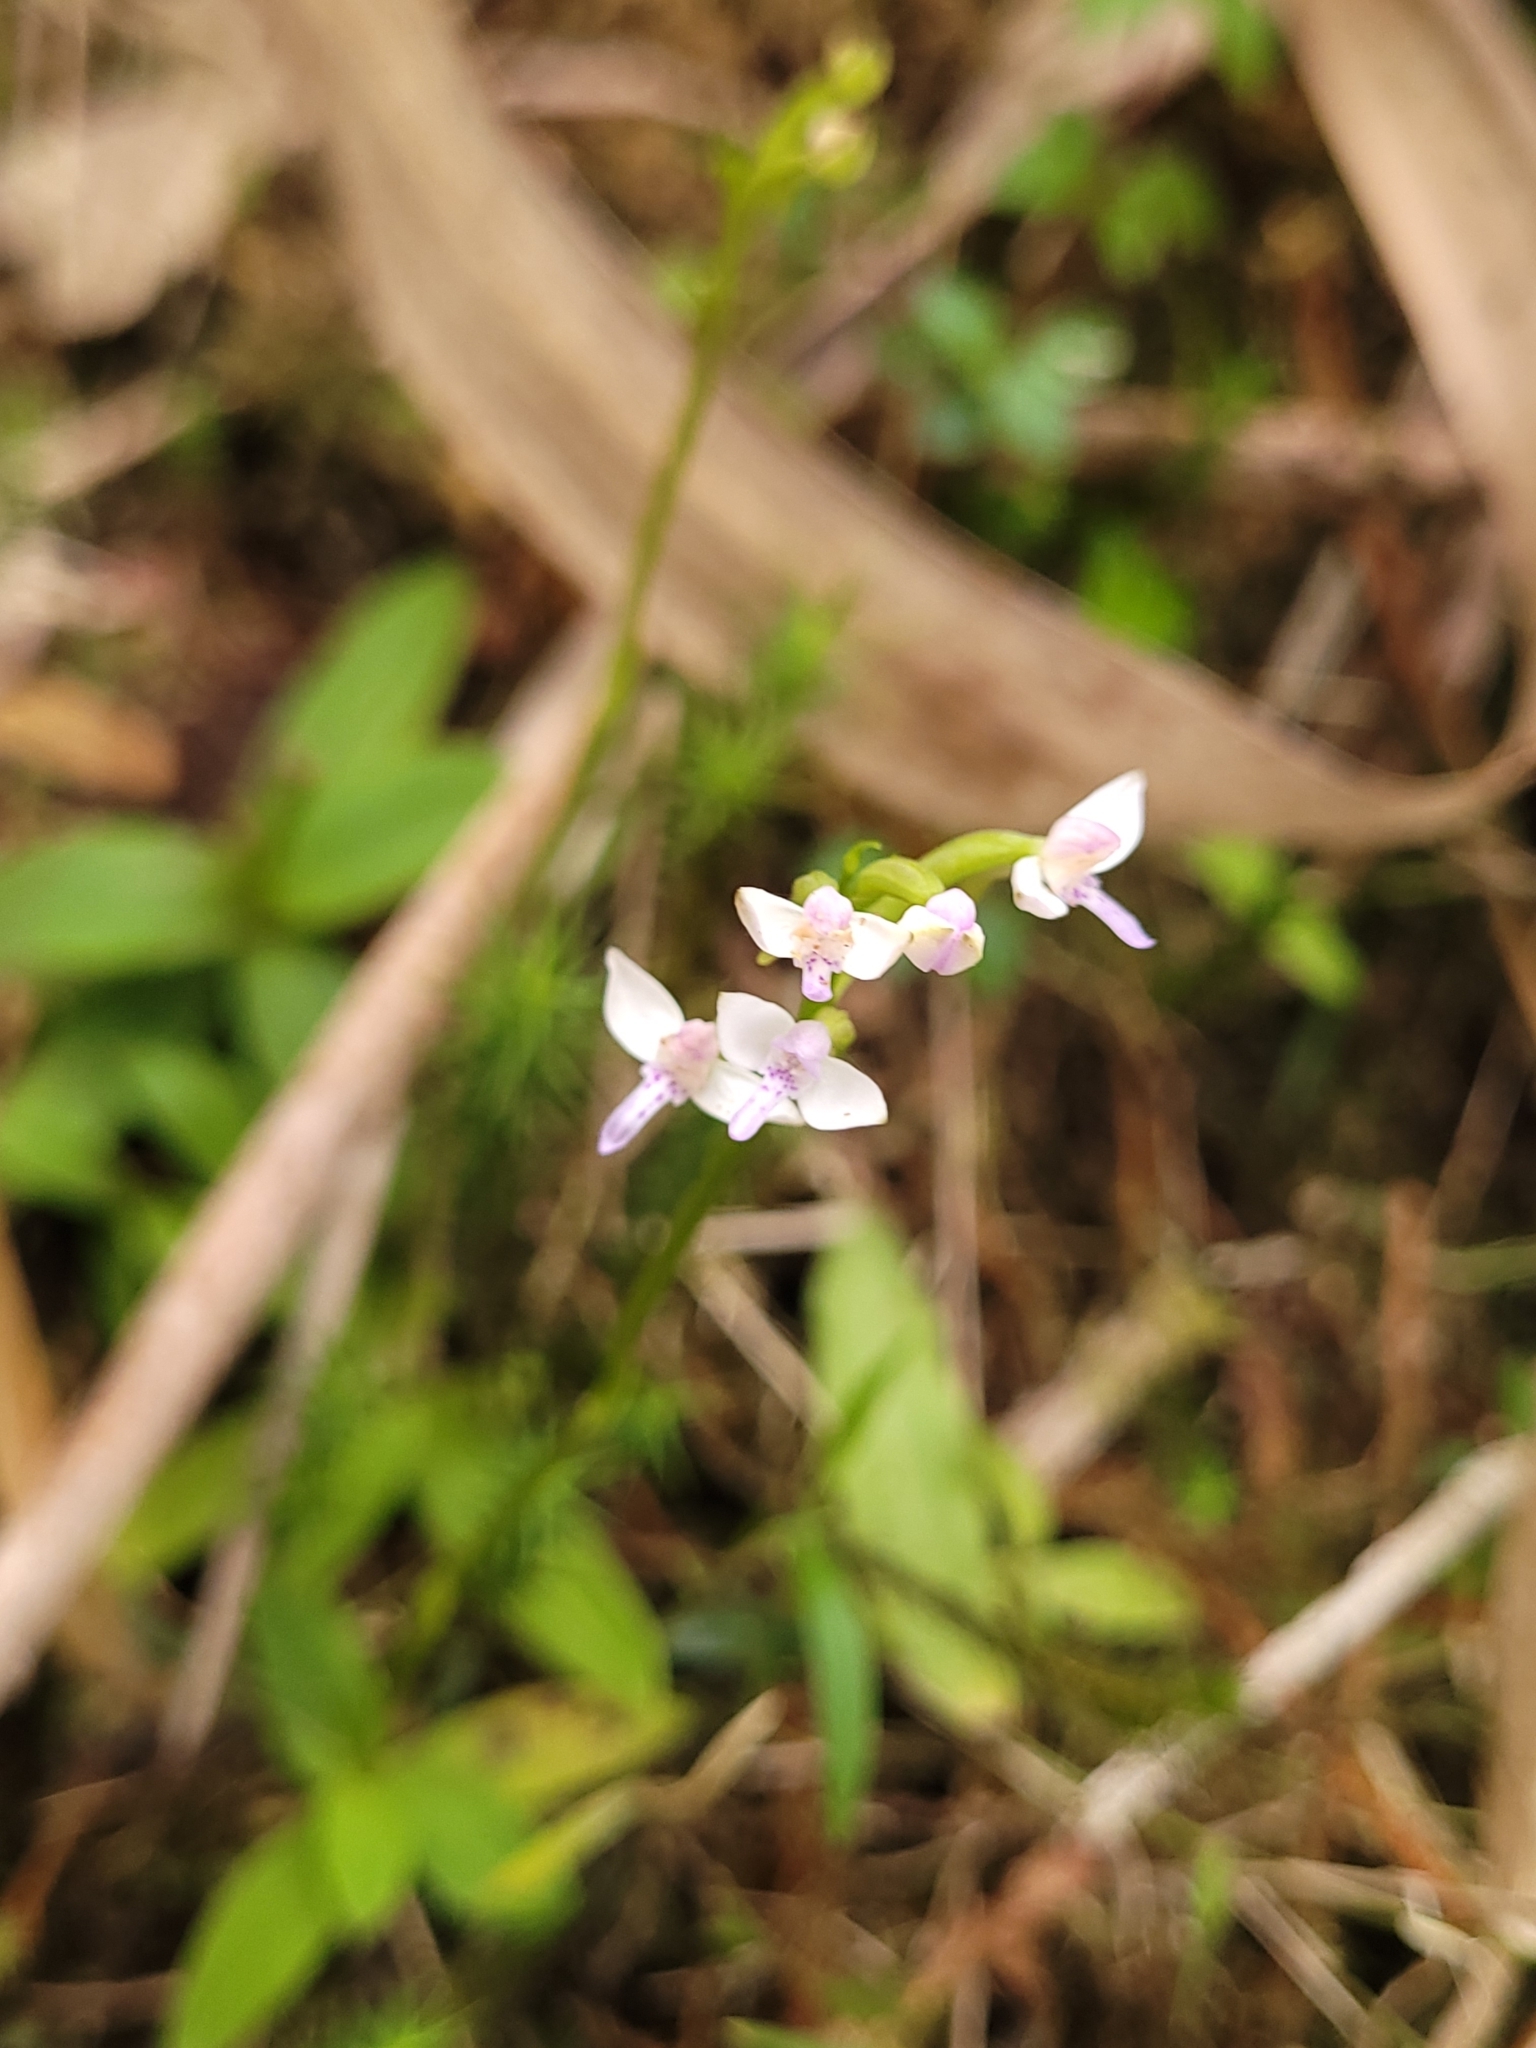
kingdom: Plantae
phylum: Tracheophyta
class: Liliopsida
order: Asparagales
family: Orchidaceae
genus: Cynorkis
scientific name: Cynorkis rosellata
